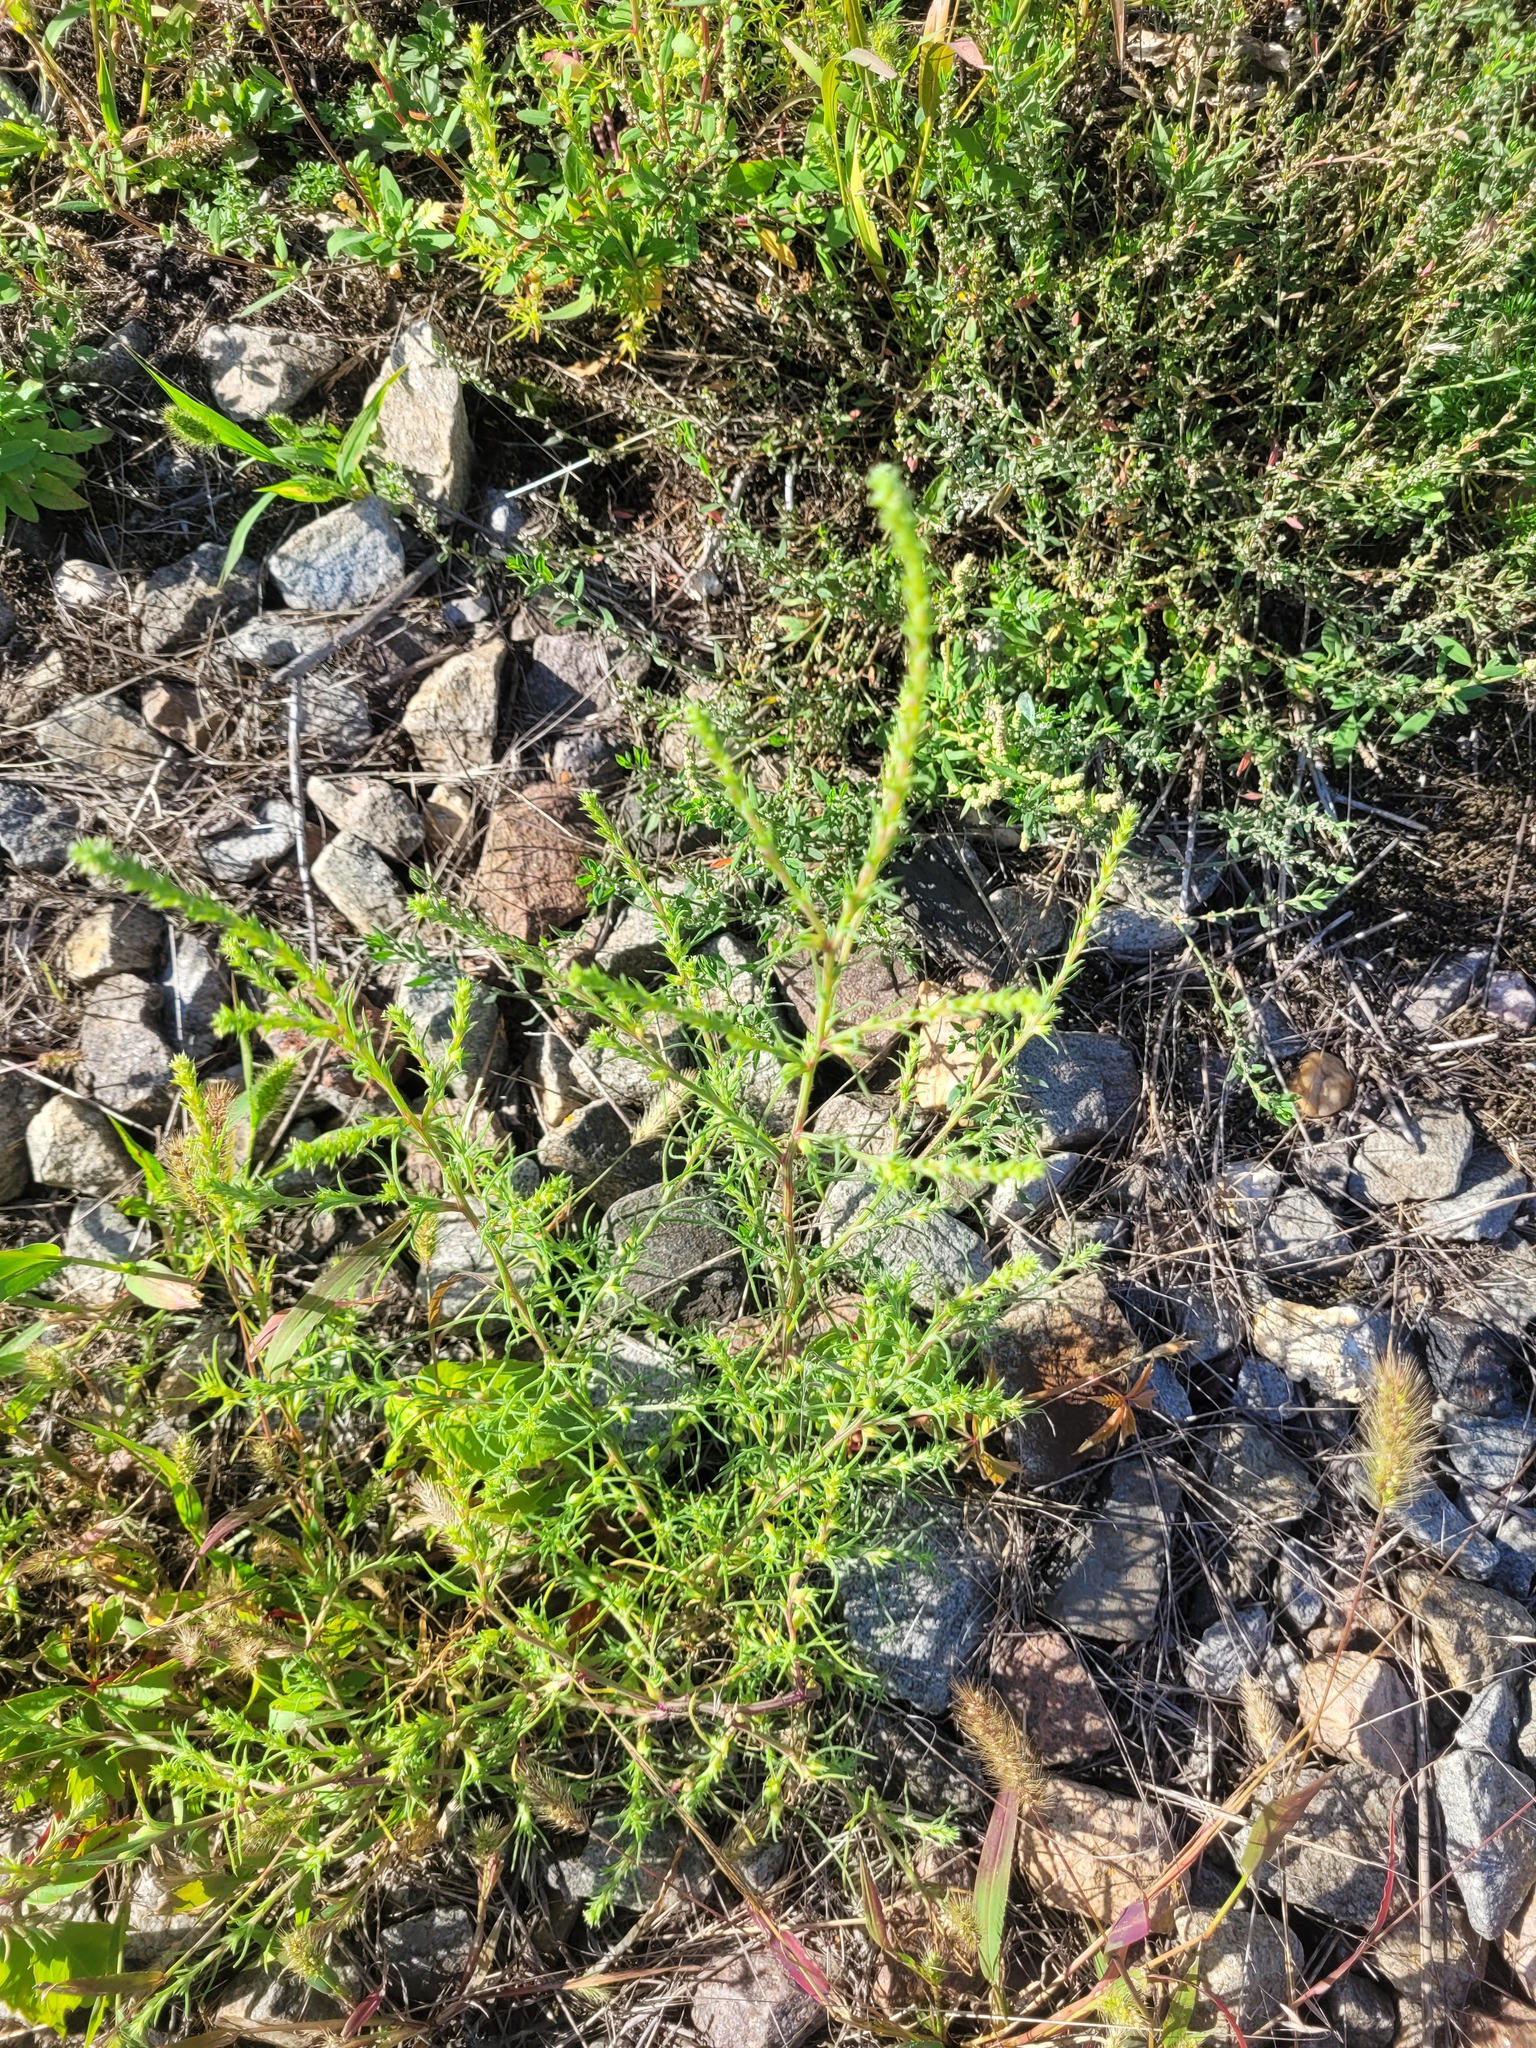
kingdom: Plantae
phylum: Tracheophyta
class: Magnoliopsida
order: Caryophyllales
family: Amaranthaceae
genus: Salsola
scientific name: Salsola collina
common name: Tumbleweed
